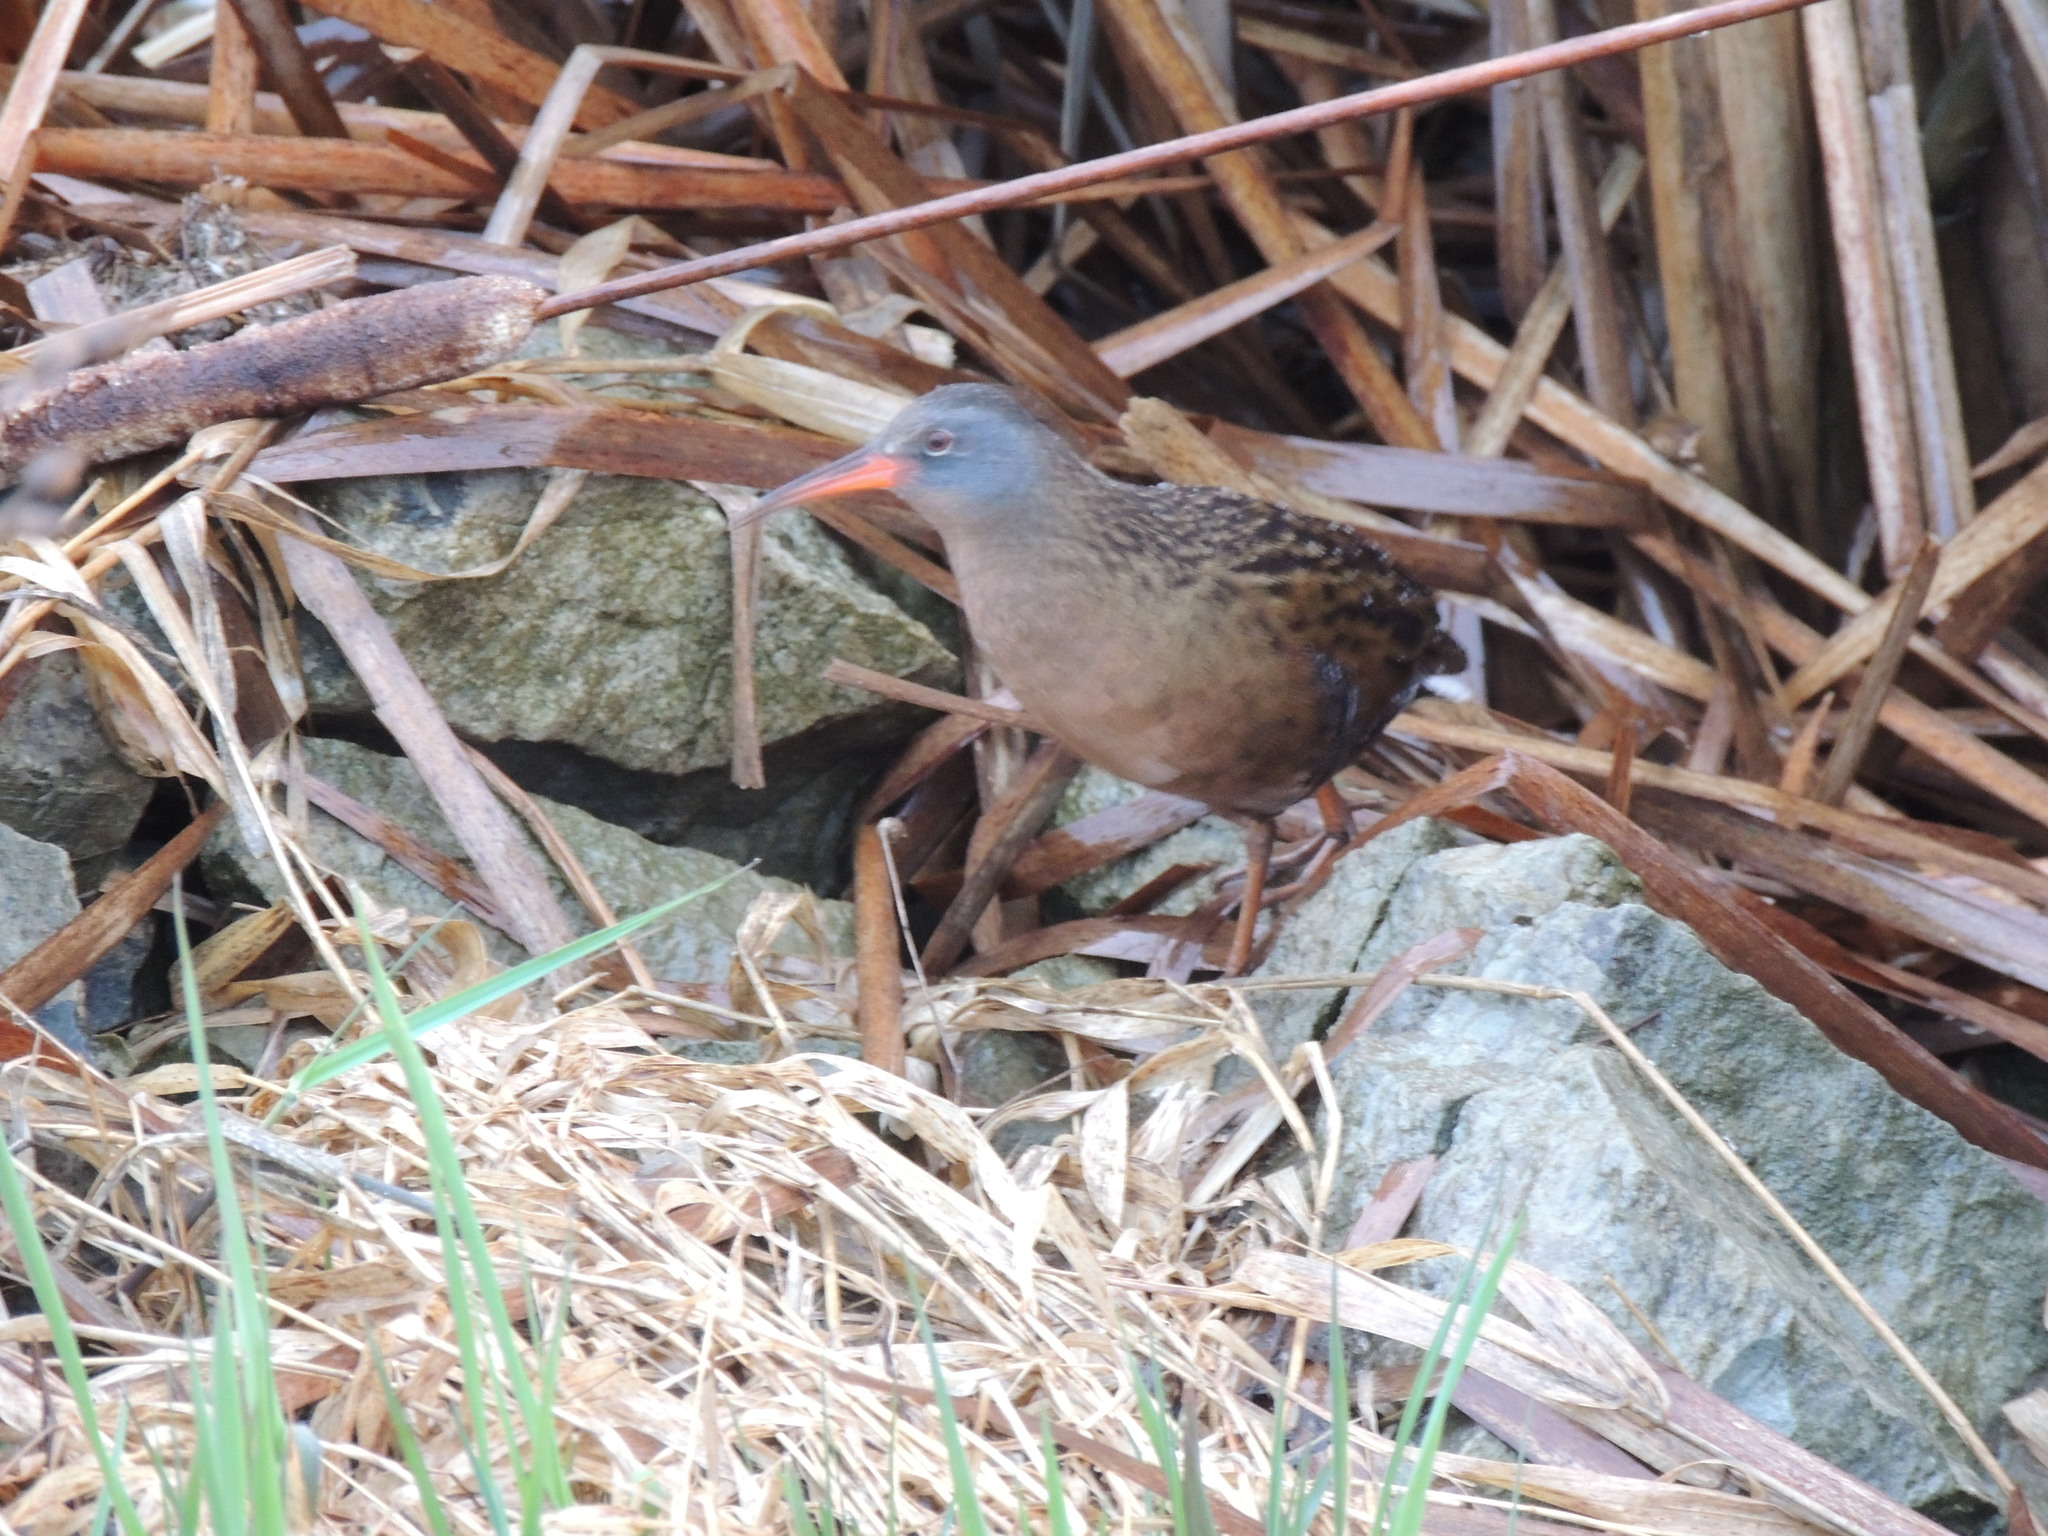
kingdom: Animalia
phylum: Chordata
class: Aves
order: Gruiformes
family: Rallidae
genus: Rallus
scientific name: Rallus limicola
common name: Virginia rail
